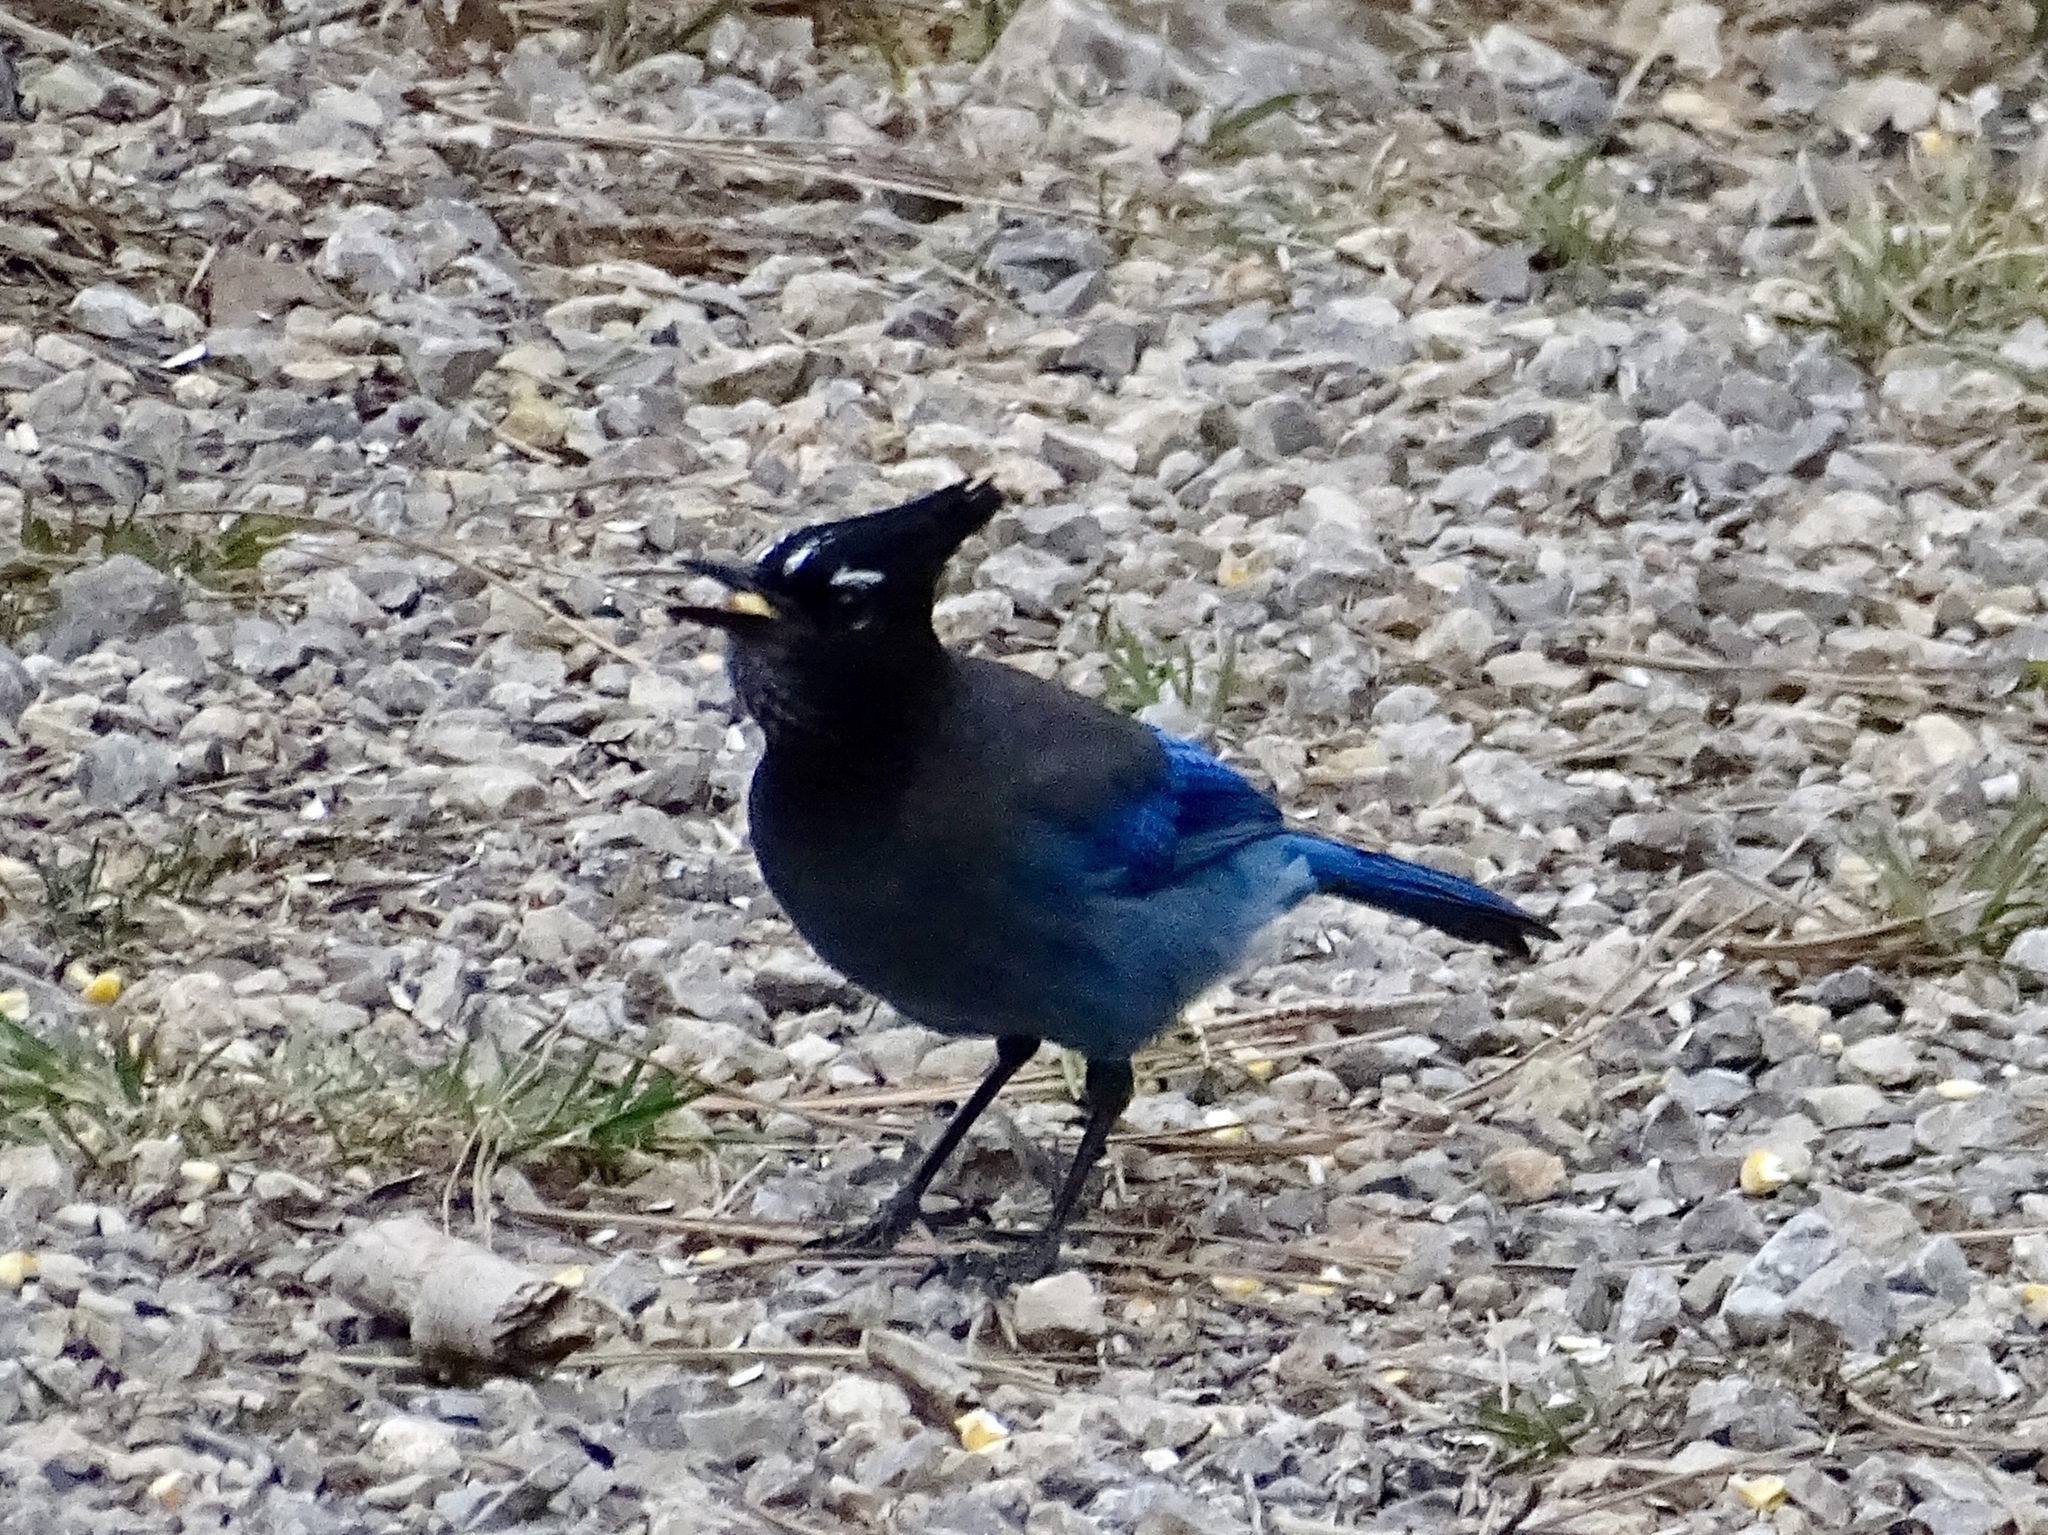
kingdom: Animalia
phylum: Chordata
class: Aves
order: Passeriformes
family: Corvidae
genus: Cyanocitta
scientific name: Cyanocitta stelleri
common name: Steller's jay
